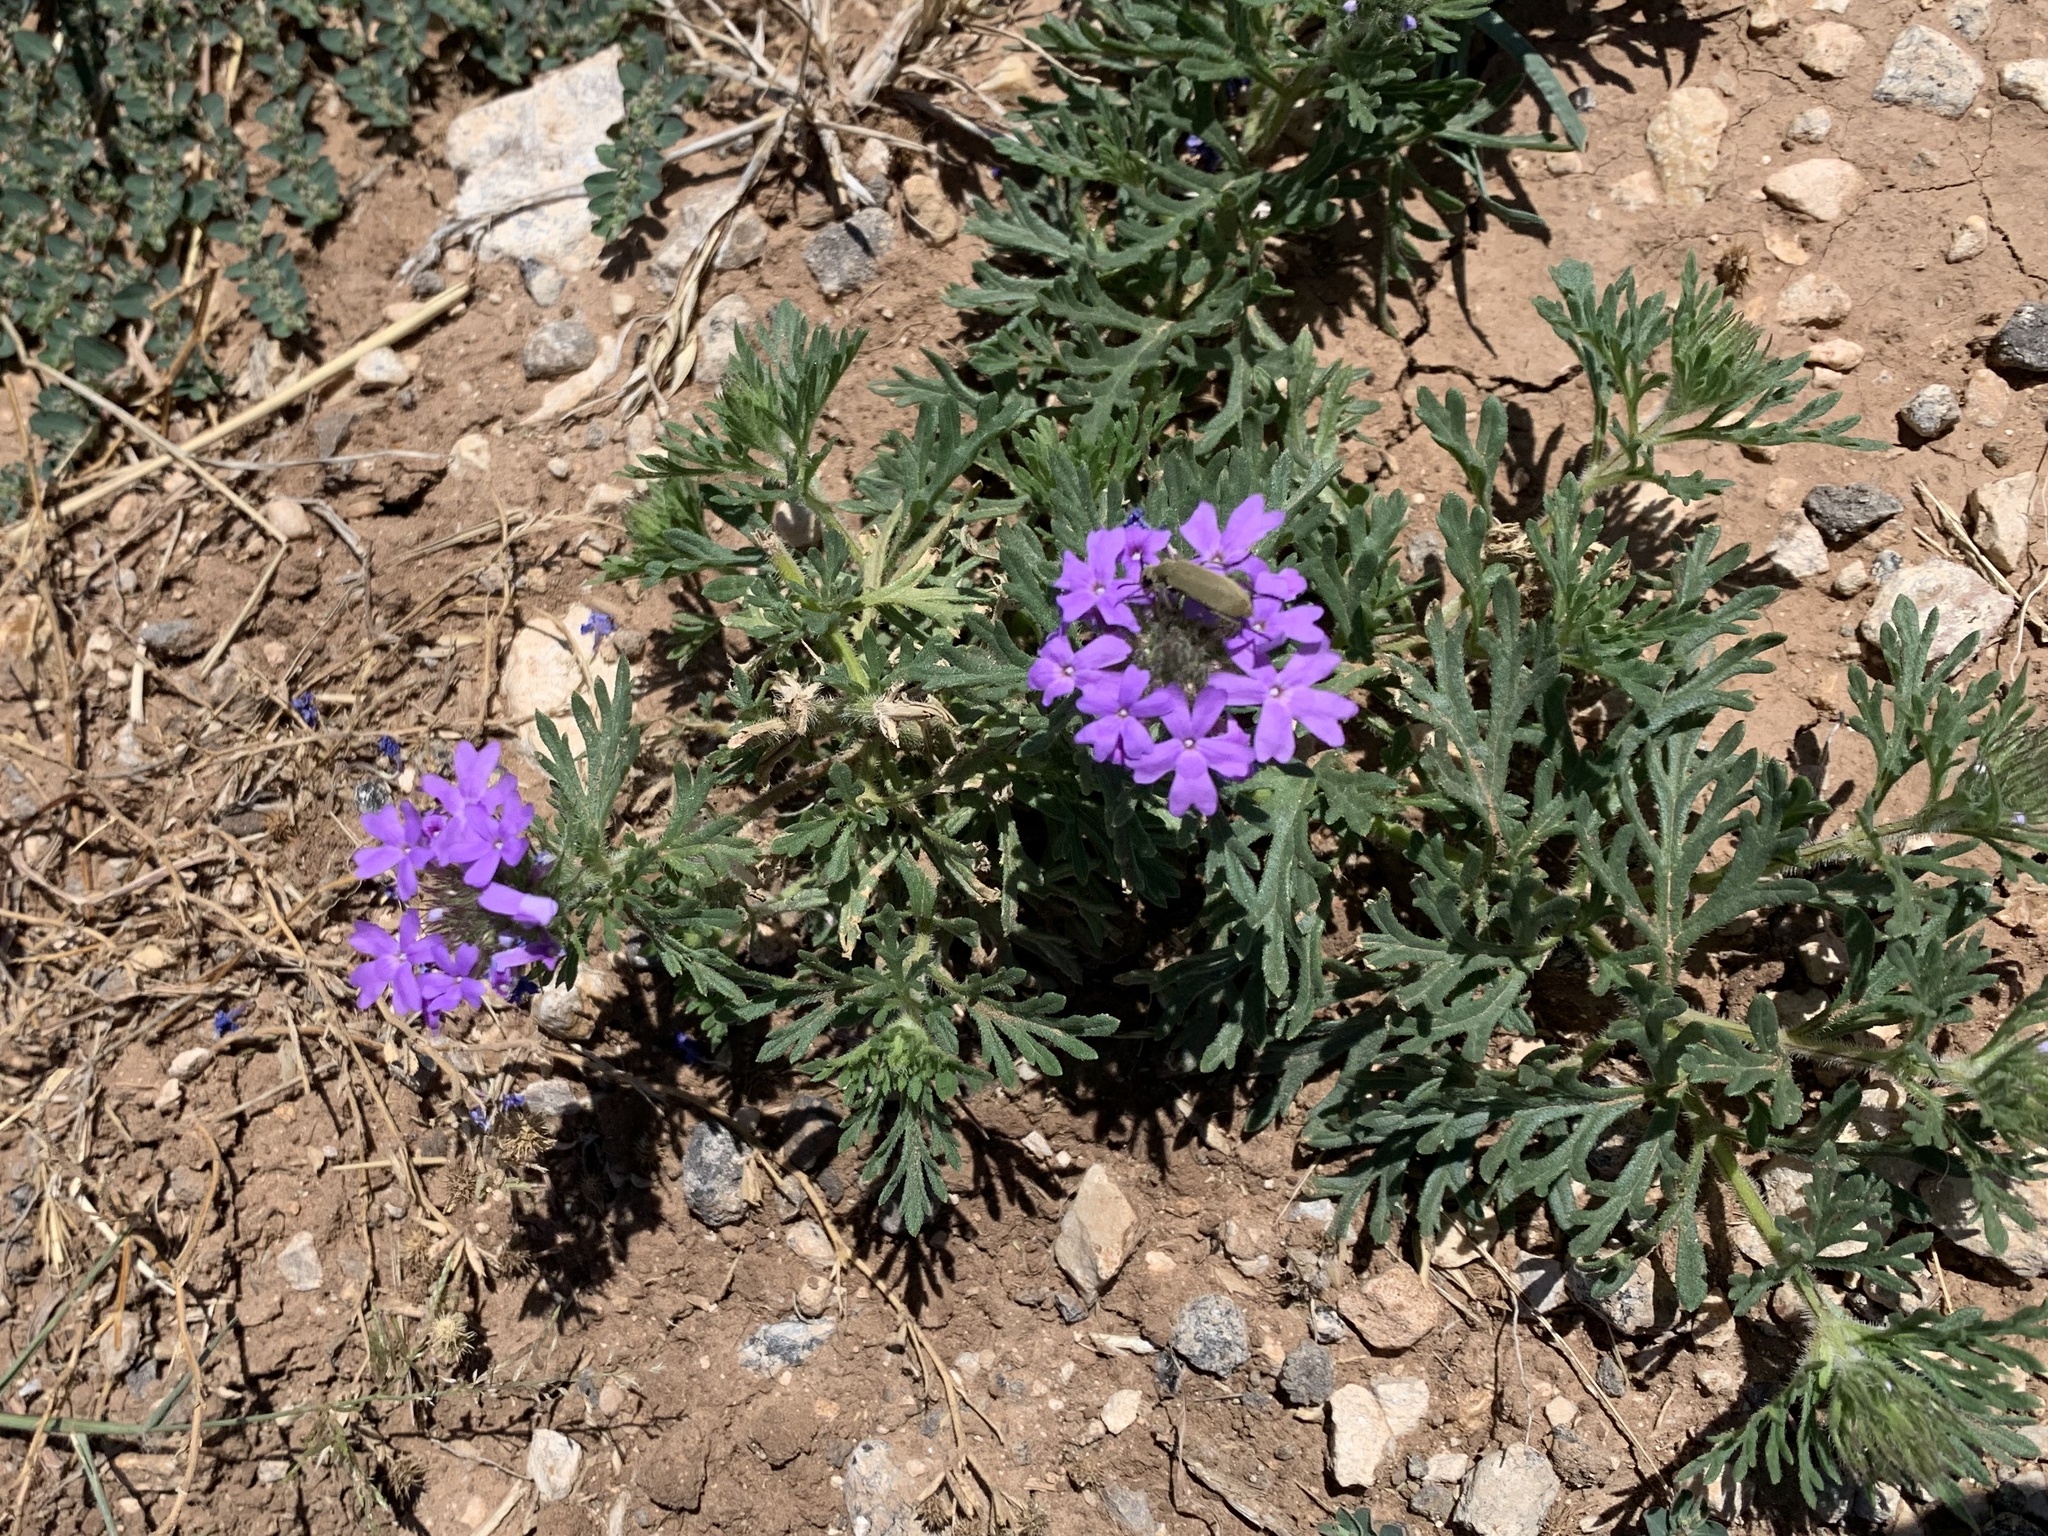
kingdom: Plantae
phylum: Tracheophyta
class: Magnoliopsida
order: Lamiales
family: Verbenaceae
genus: Verbena
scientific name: Verbena bipinnatifida
